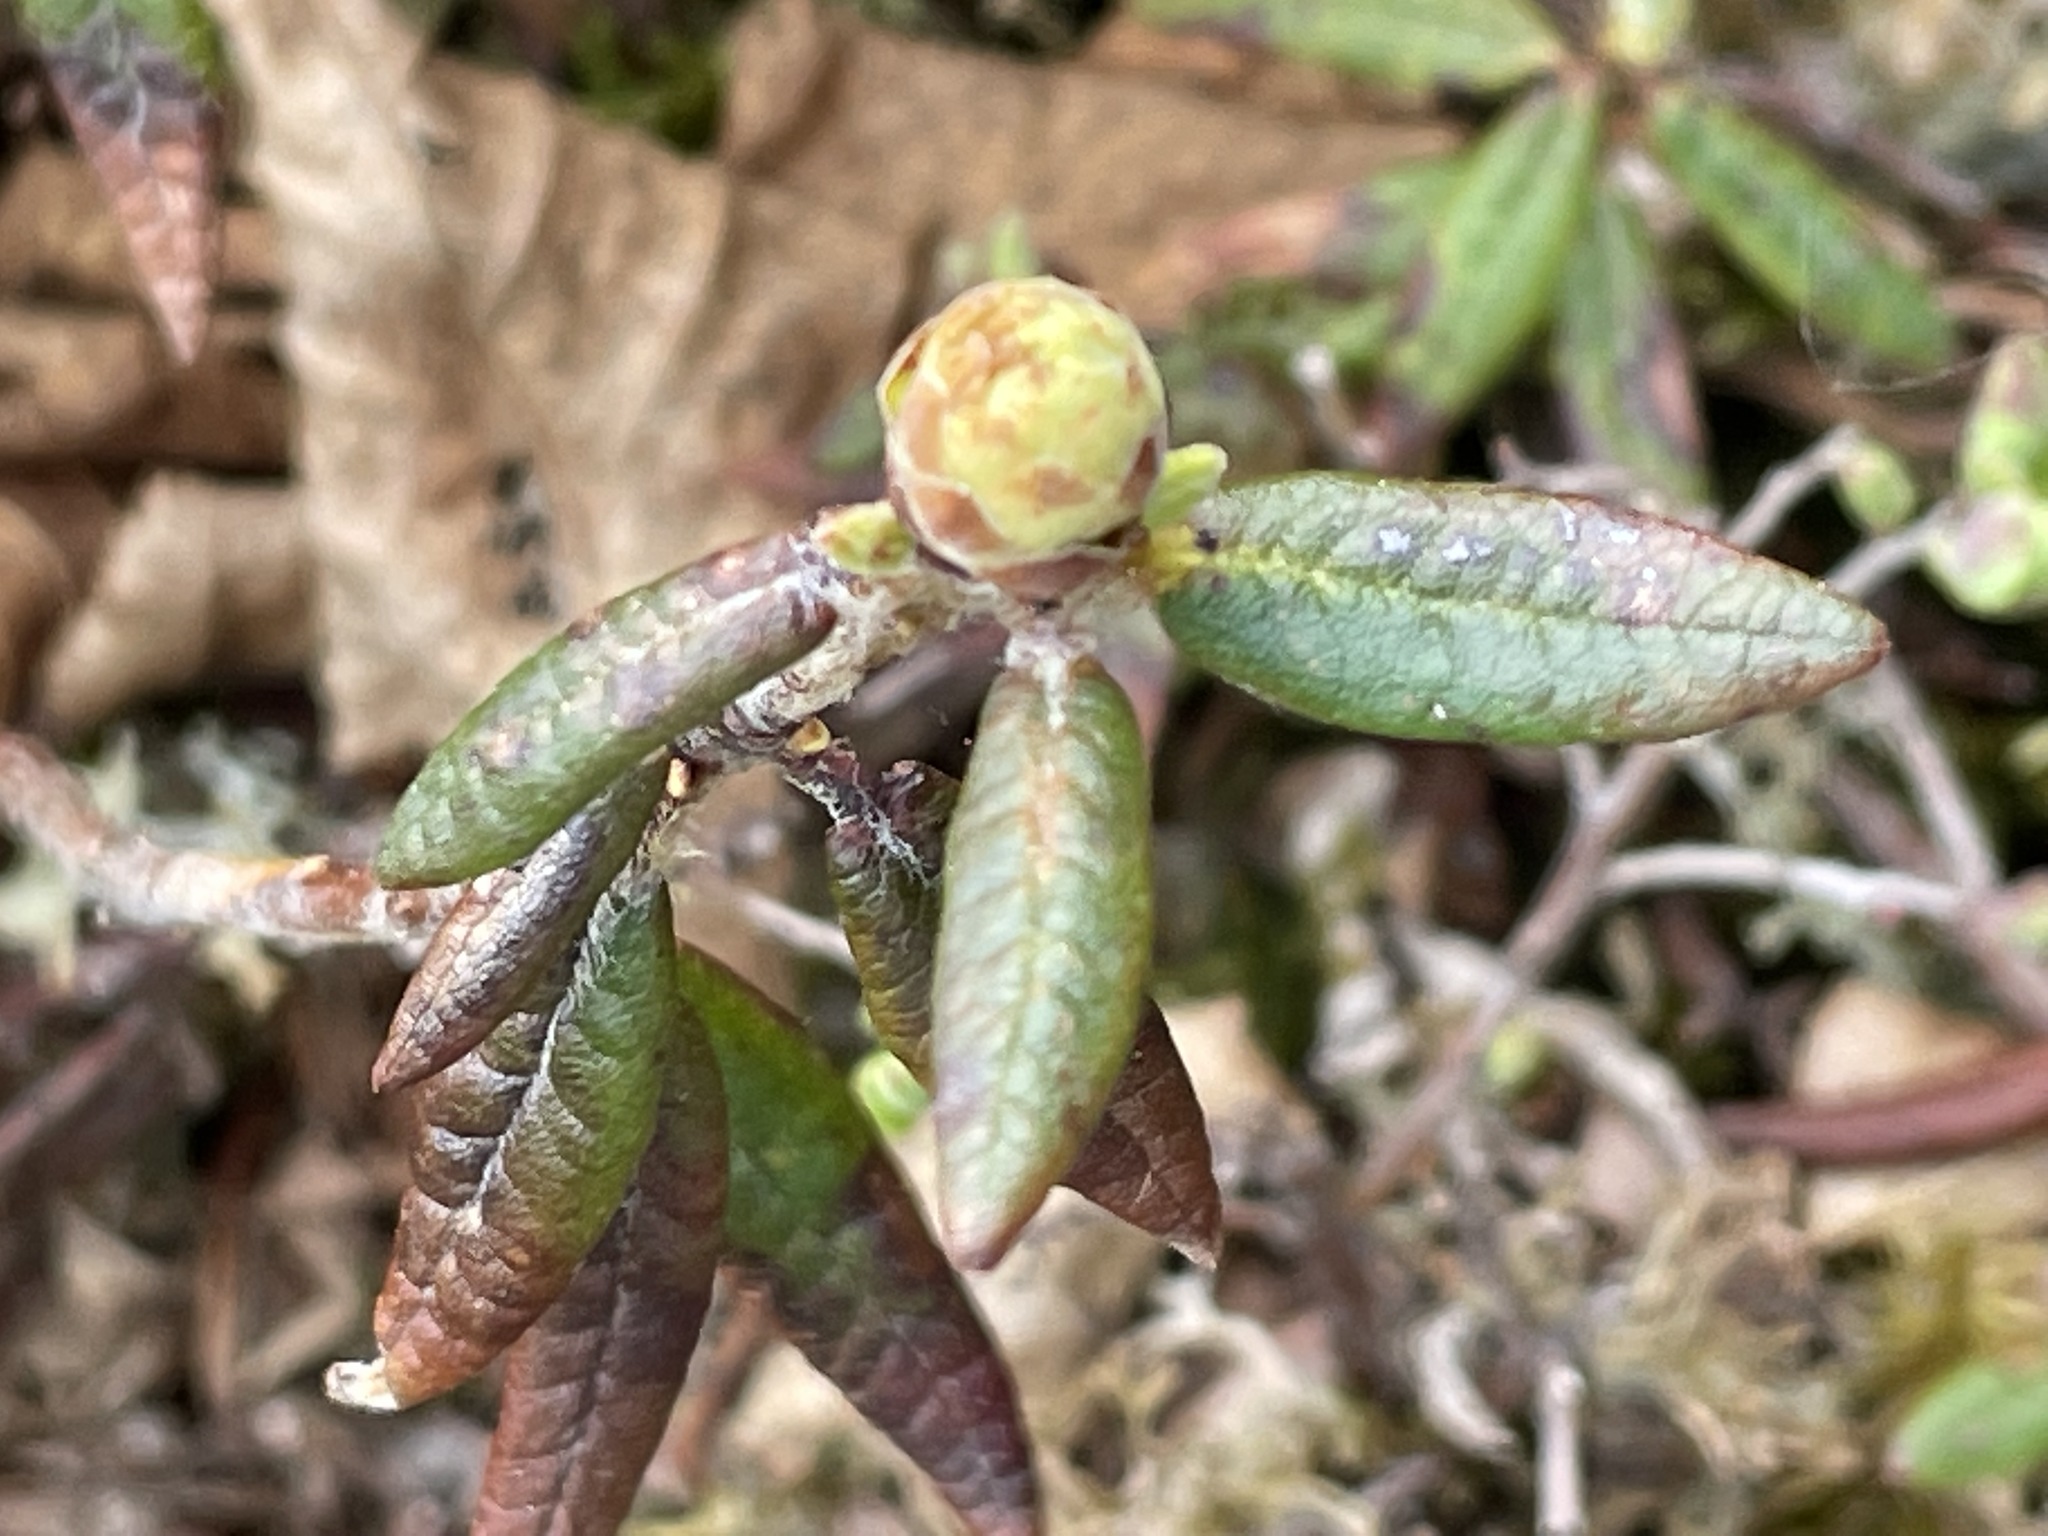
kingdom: Plantae
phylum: Tracheophyta
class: Magnoliopsida
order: Ericales
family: Ericaceae
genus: Rhododendron
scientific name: Rhododendron groenlandicum
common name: Bog labrador tea
